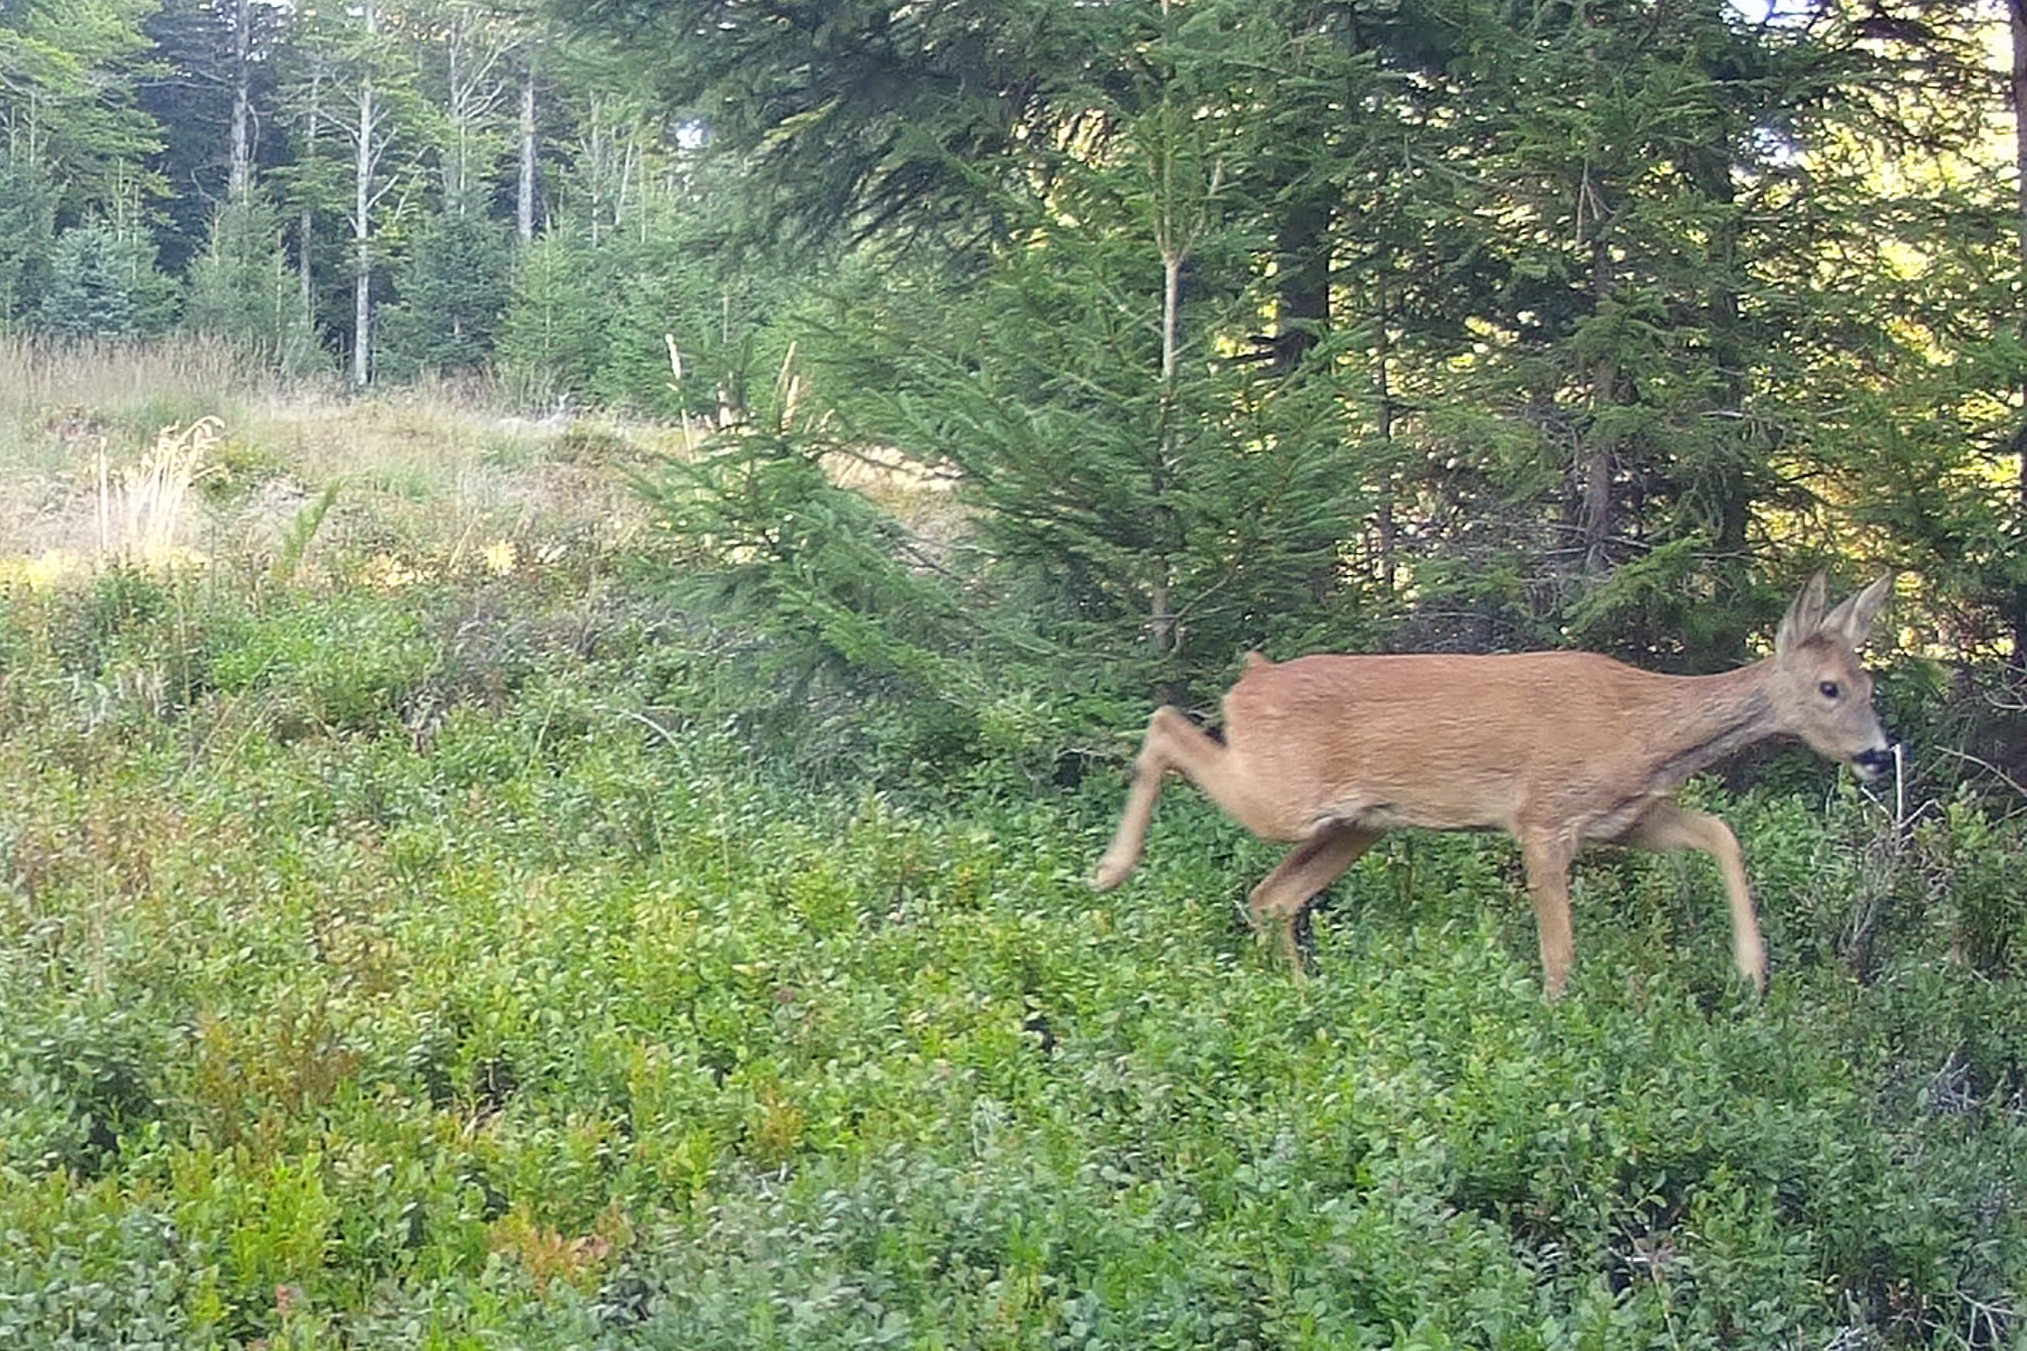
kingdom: Animalia
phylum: Chordata
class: Mammalia
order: Artiodactyla
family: Cervidae
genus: Capreolus
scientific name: Capreolus capreolus
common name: Western roe deer
